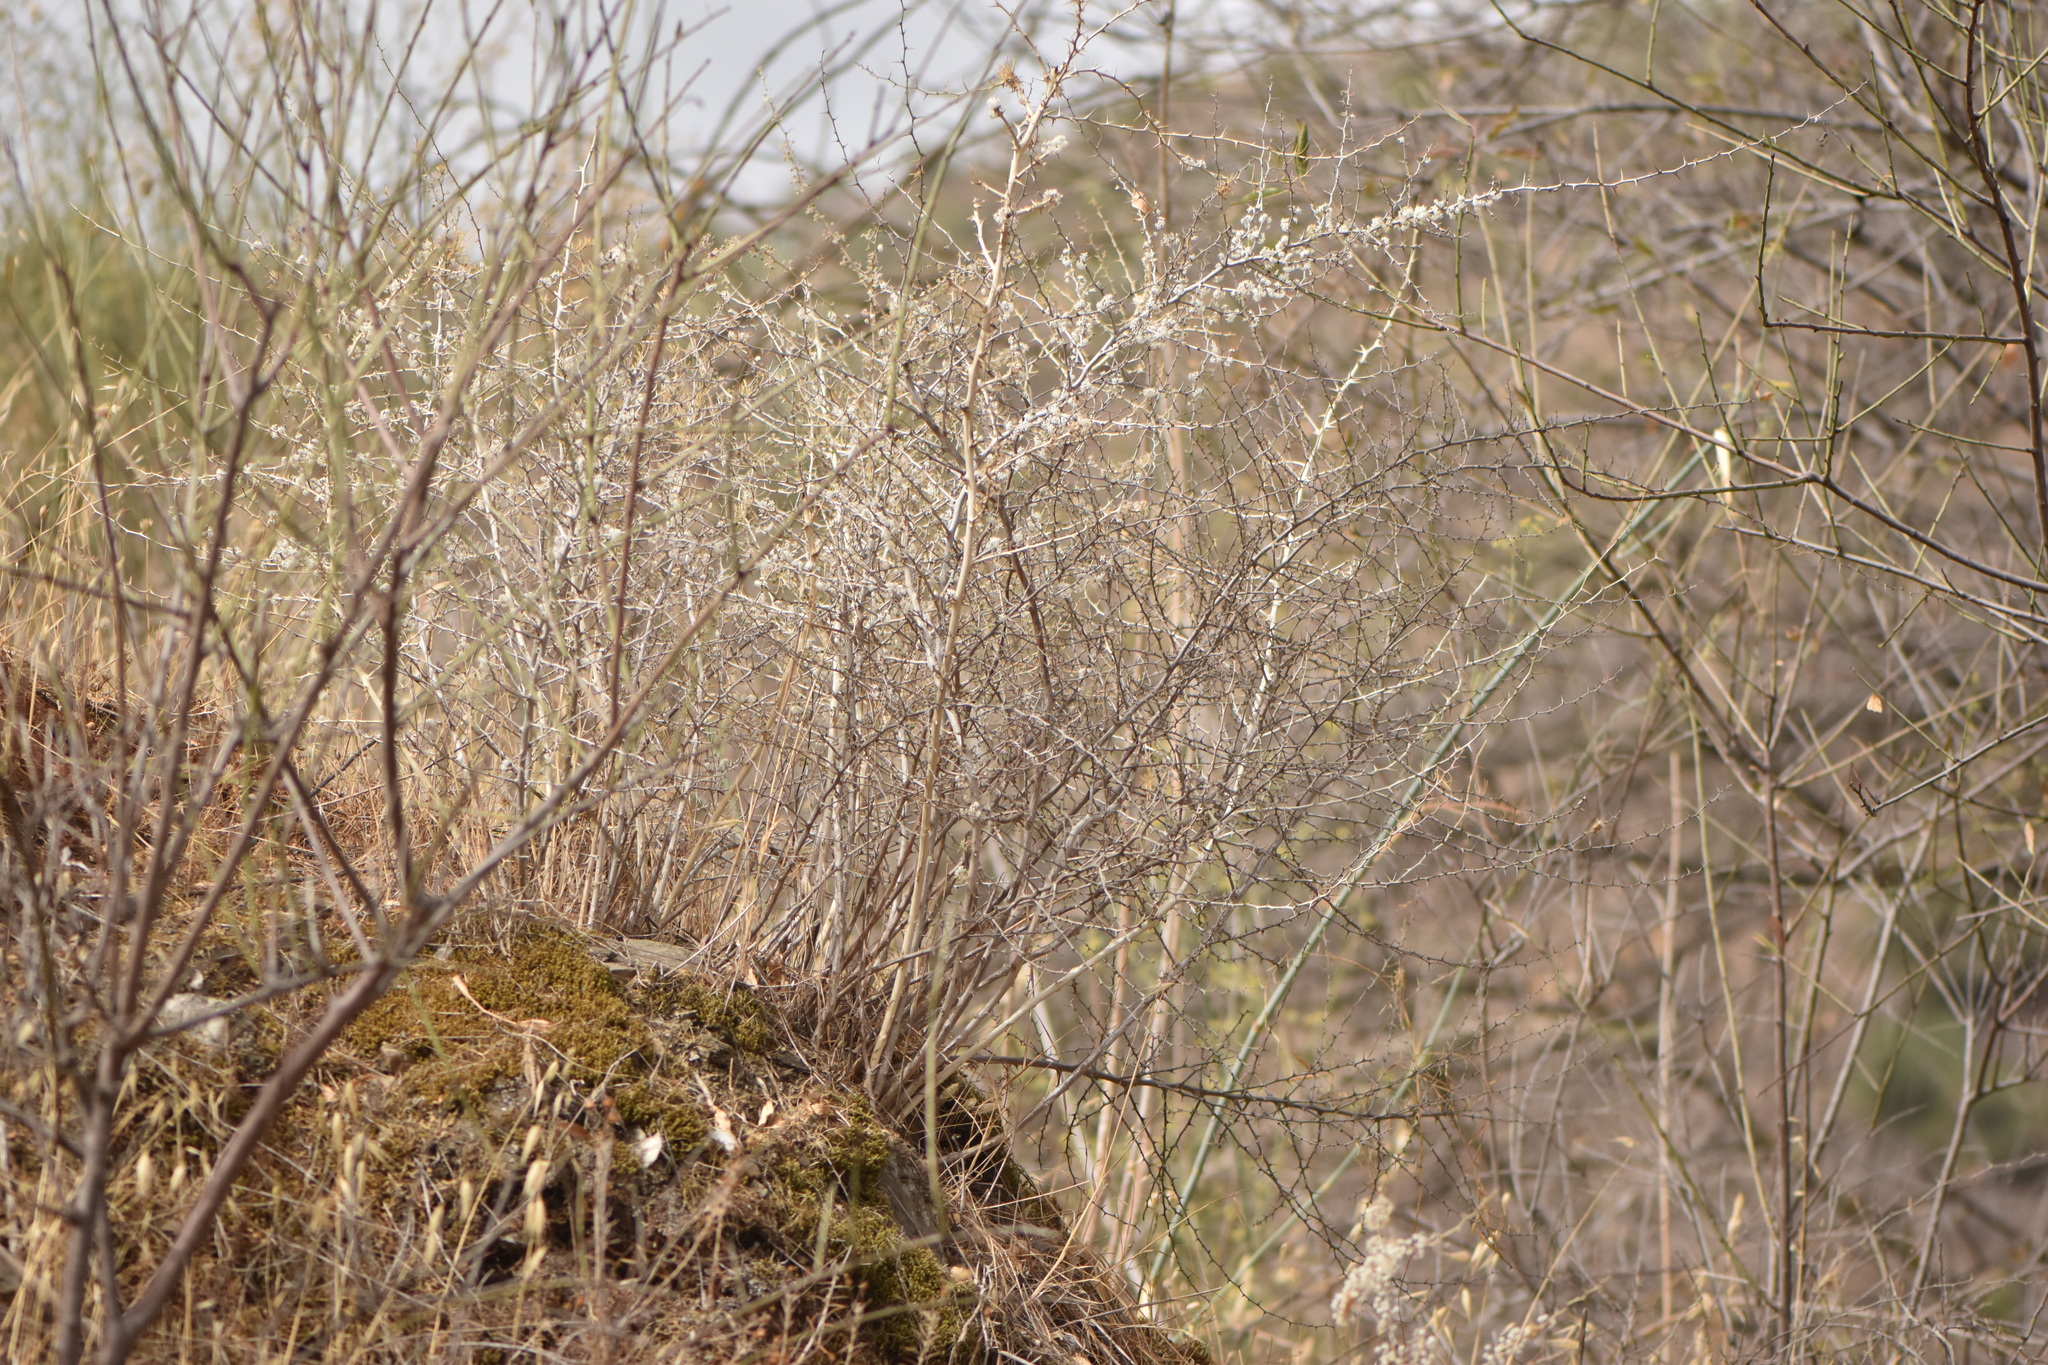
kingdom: Plantae
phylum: Tracheophyta
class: Liliopsida
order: Asparagales
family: Asparagaceae
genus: Asparagus
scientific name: Asparagus albus
